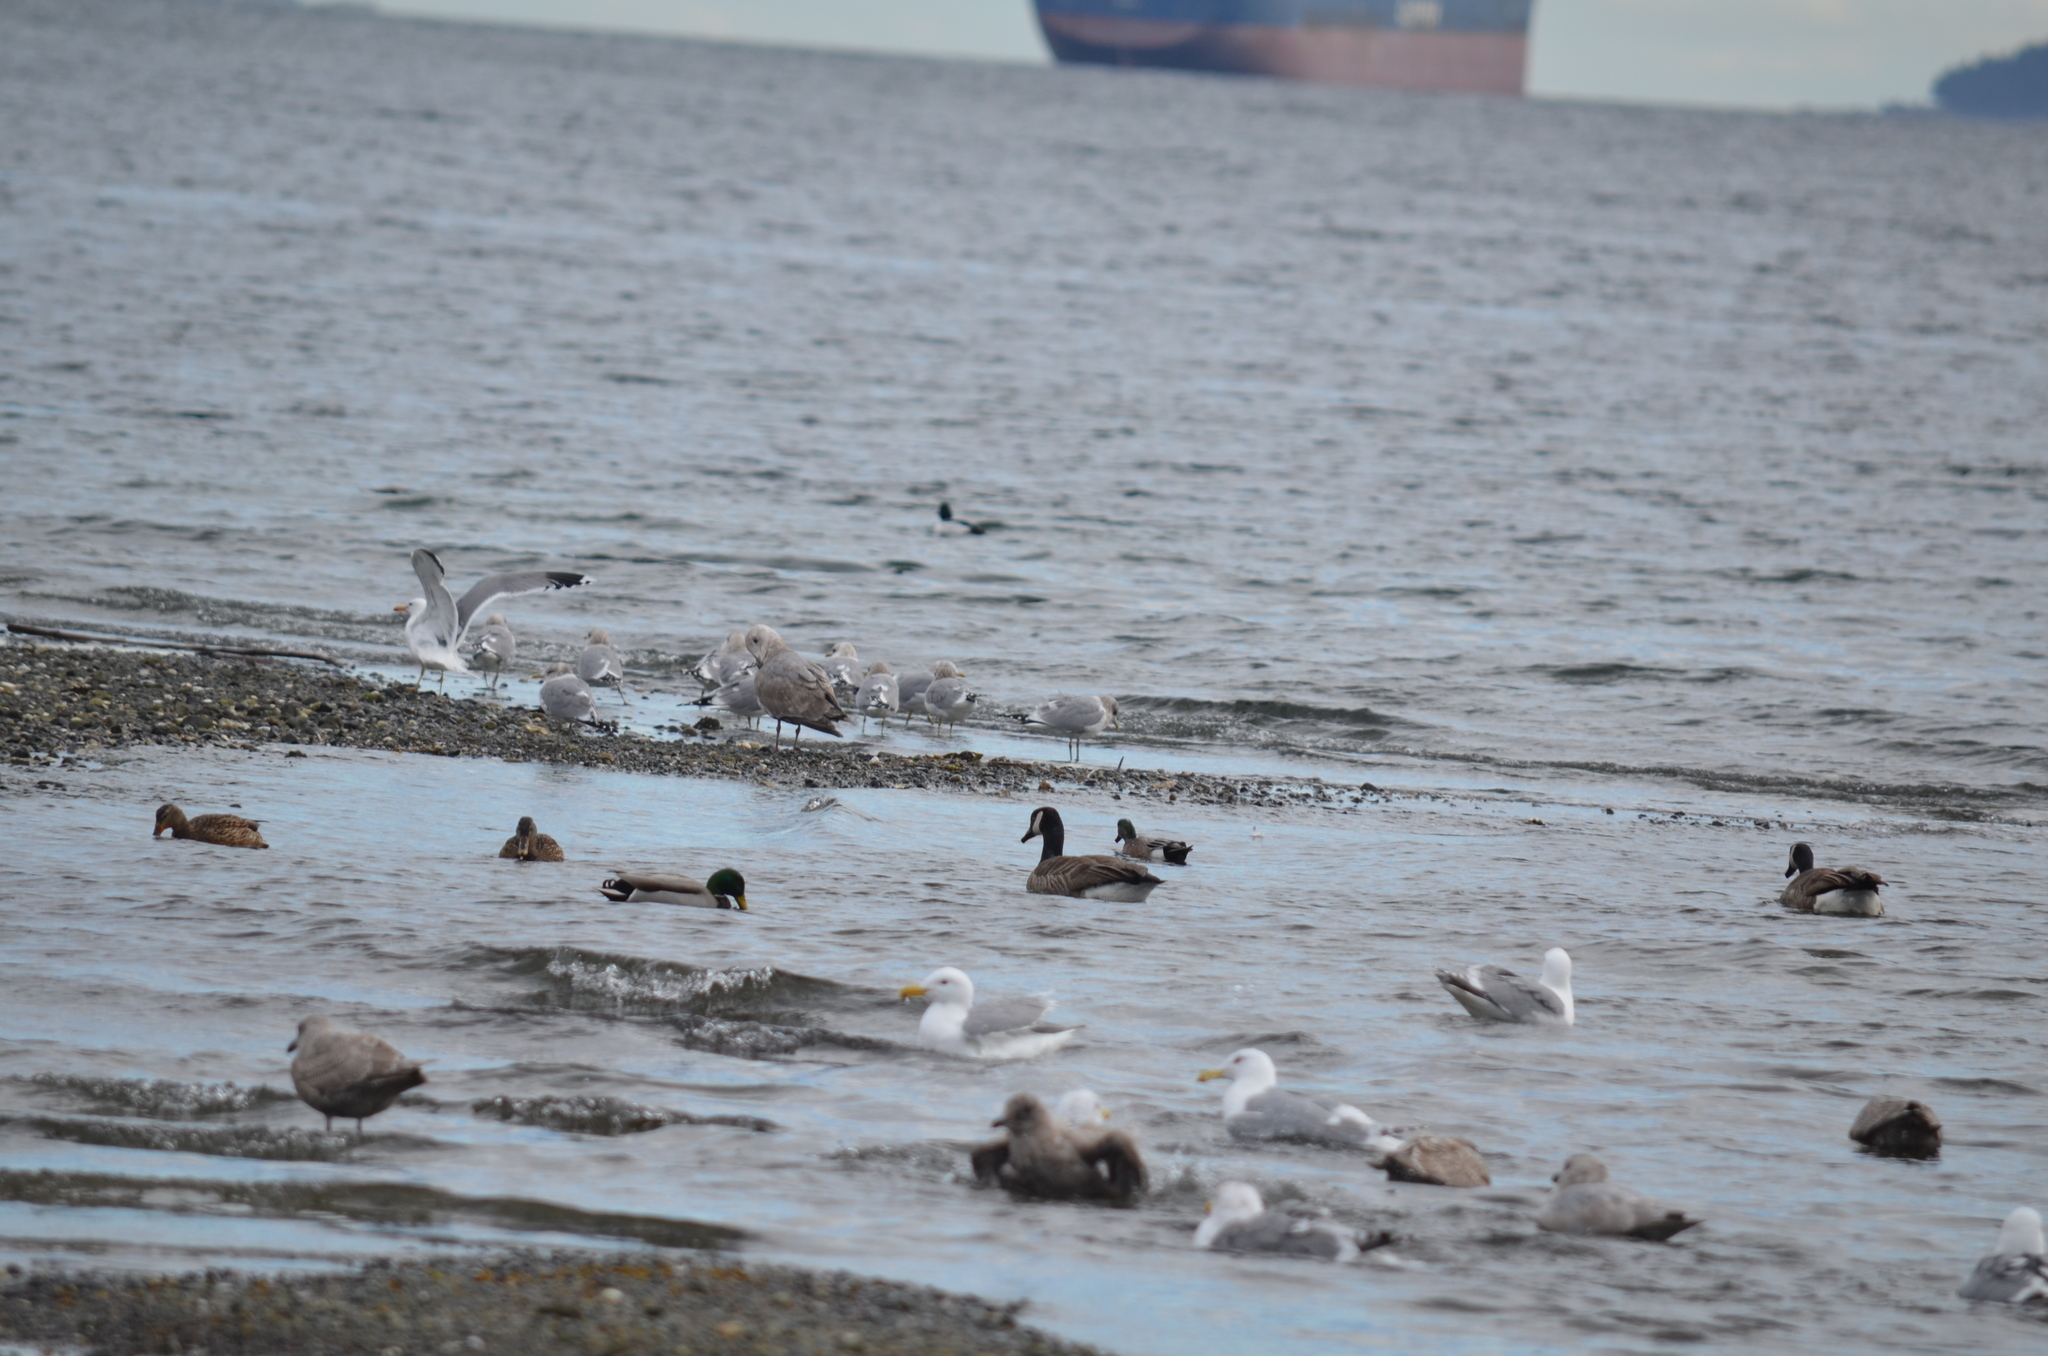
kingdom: Animalia
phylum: Chordata
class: Aves
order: Anseriformes
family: Anatidae
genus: Anas
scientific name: Anas platyrhynchos
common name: Mallard
